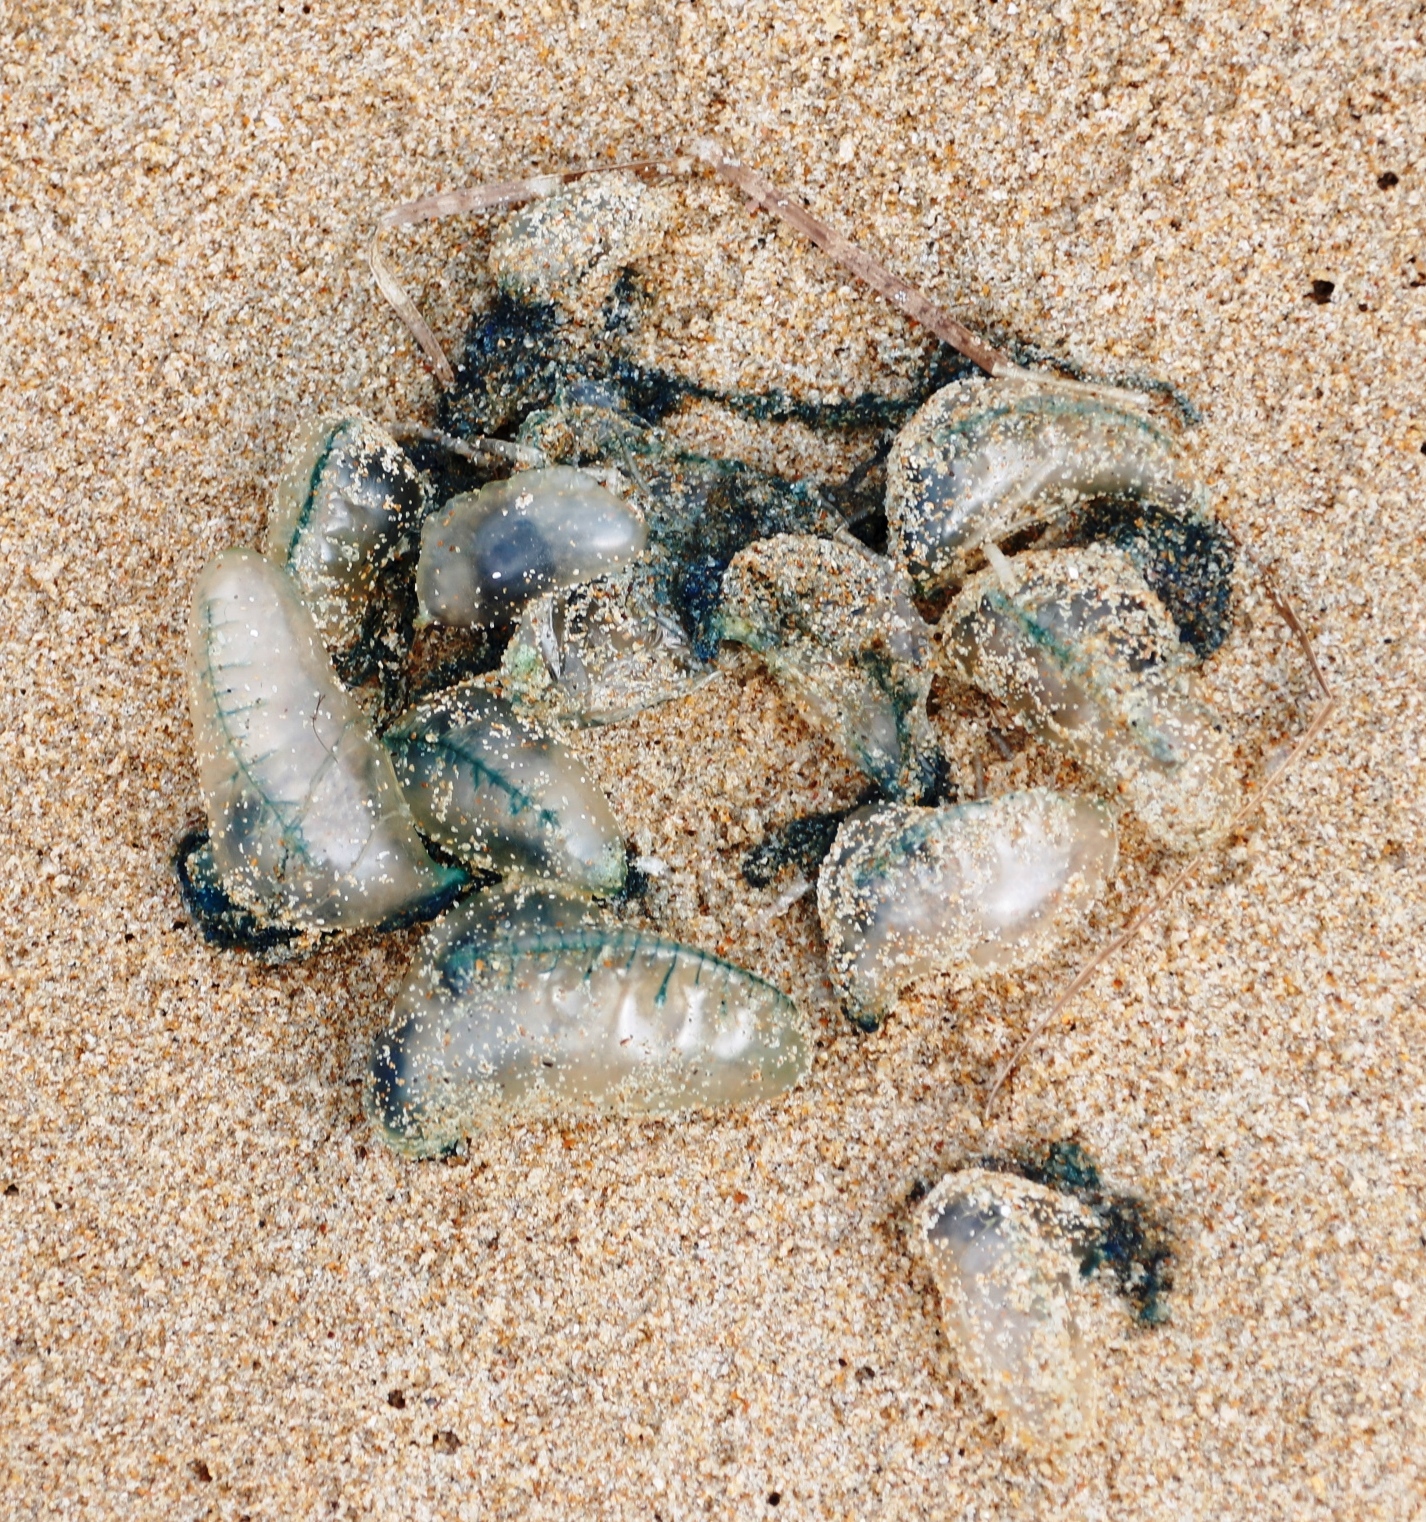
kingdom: Animalia
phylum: Cnidaria
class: Hydrozoa
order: Siphonophorae
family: Physaliidae
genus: Physalia
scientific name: Physalia physalis
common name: Portuguese man-of-war
